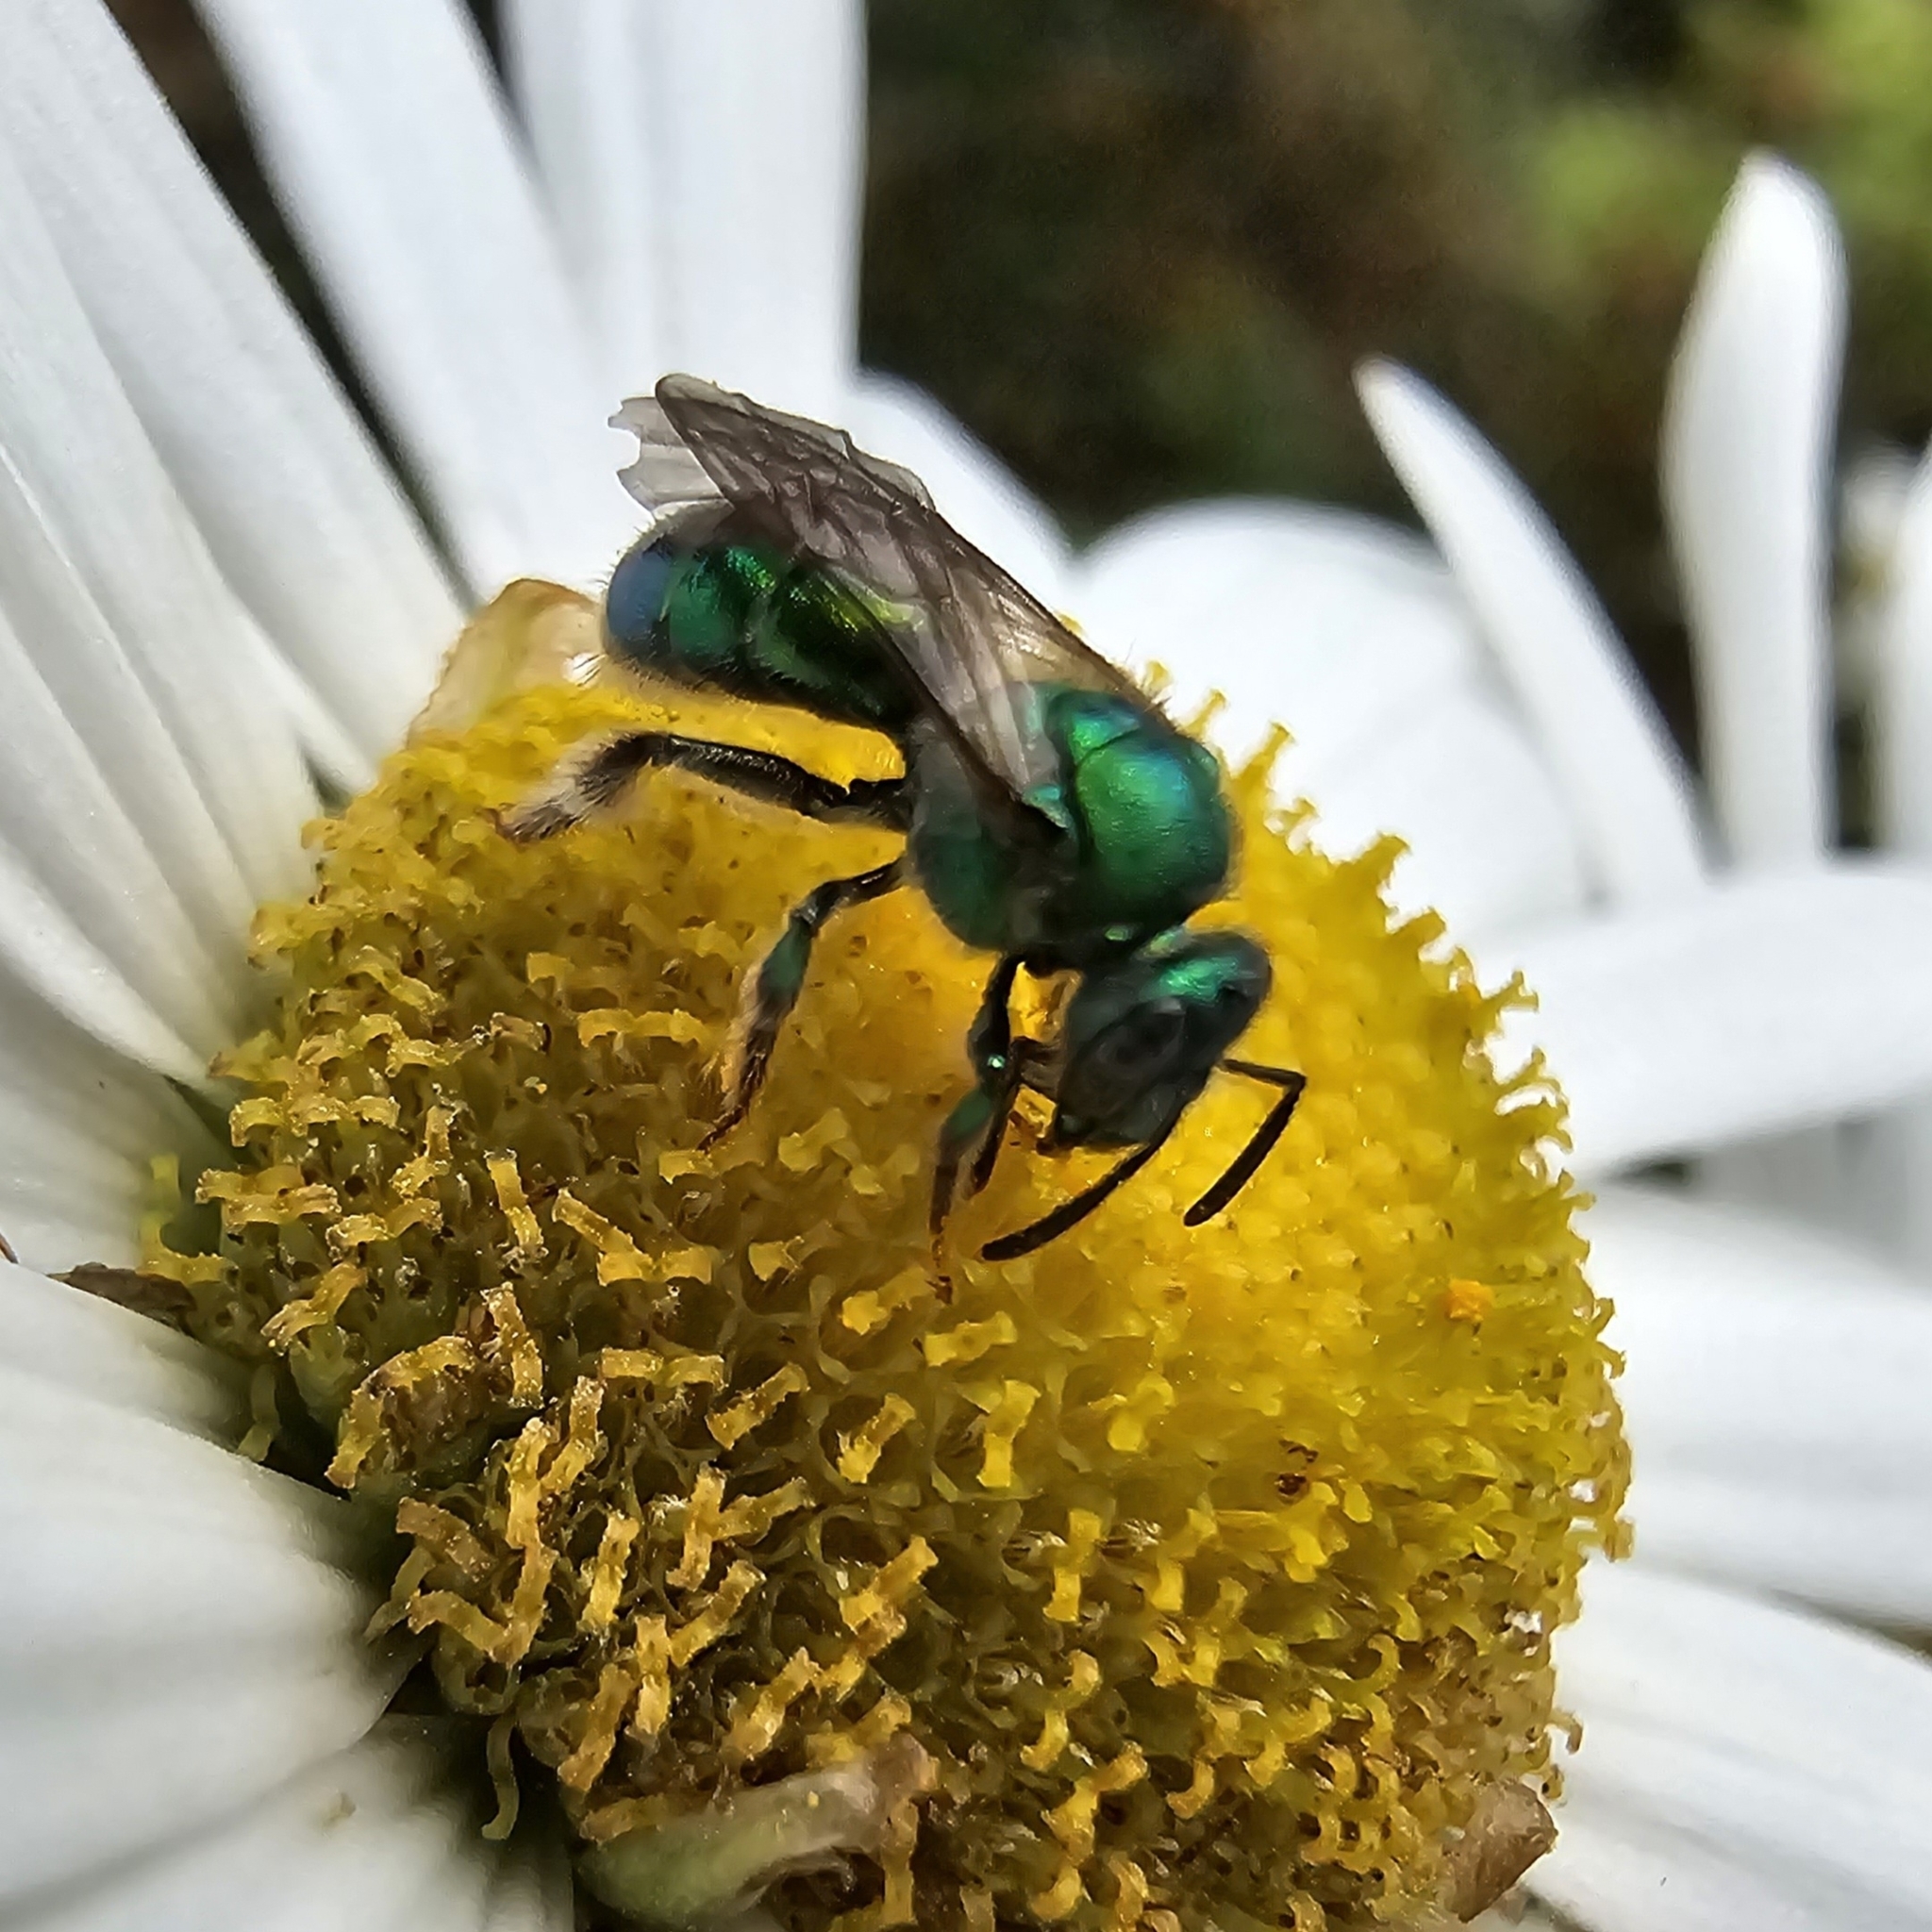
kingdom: Animalia
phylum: Arthropoda
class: Insecta
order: Hymenoptera
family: Halictidae
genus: Augochloropsis
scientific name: Augochloropsis viridula
